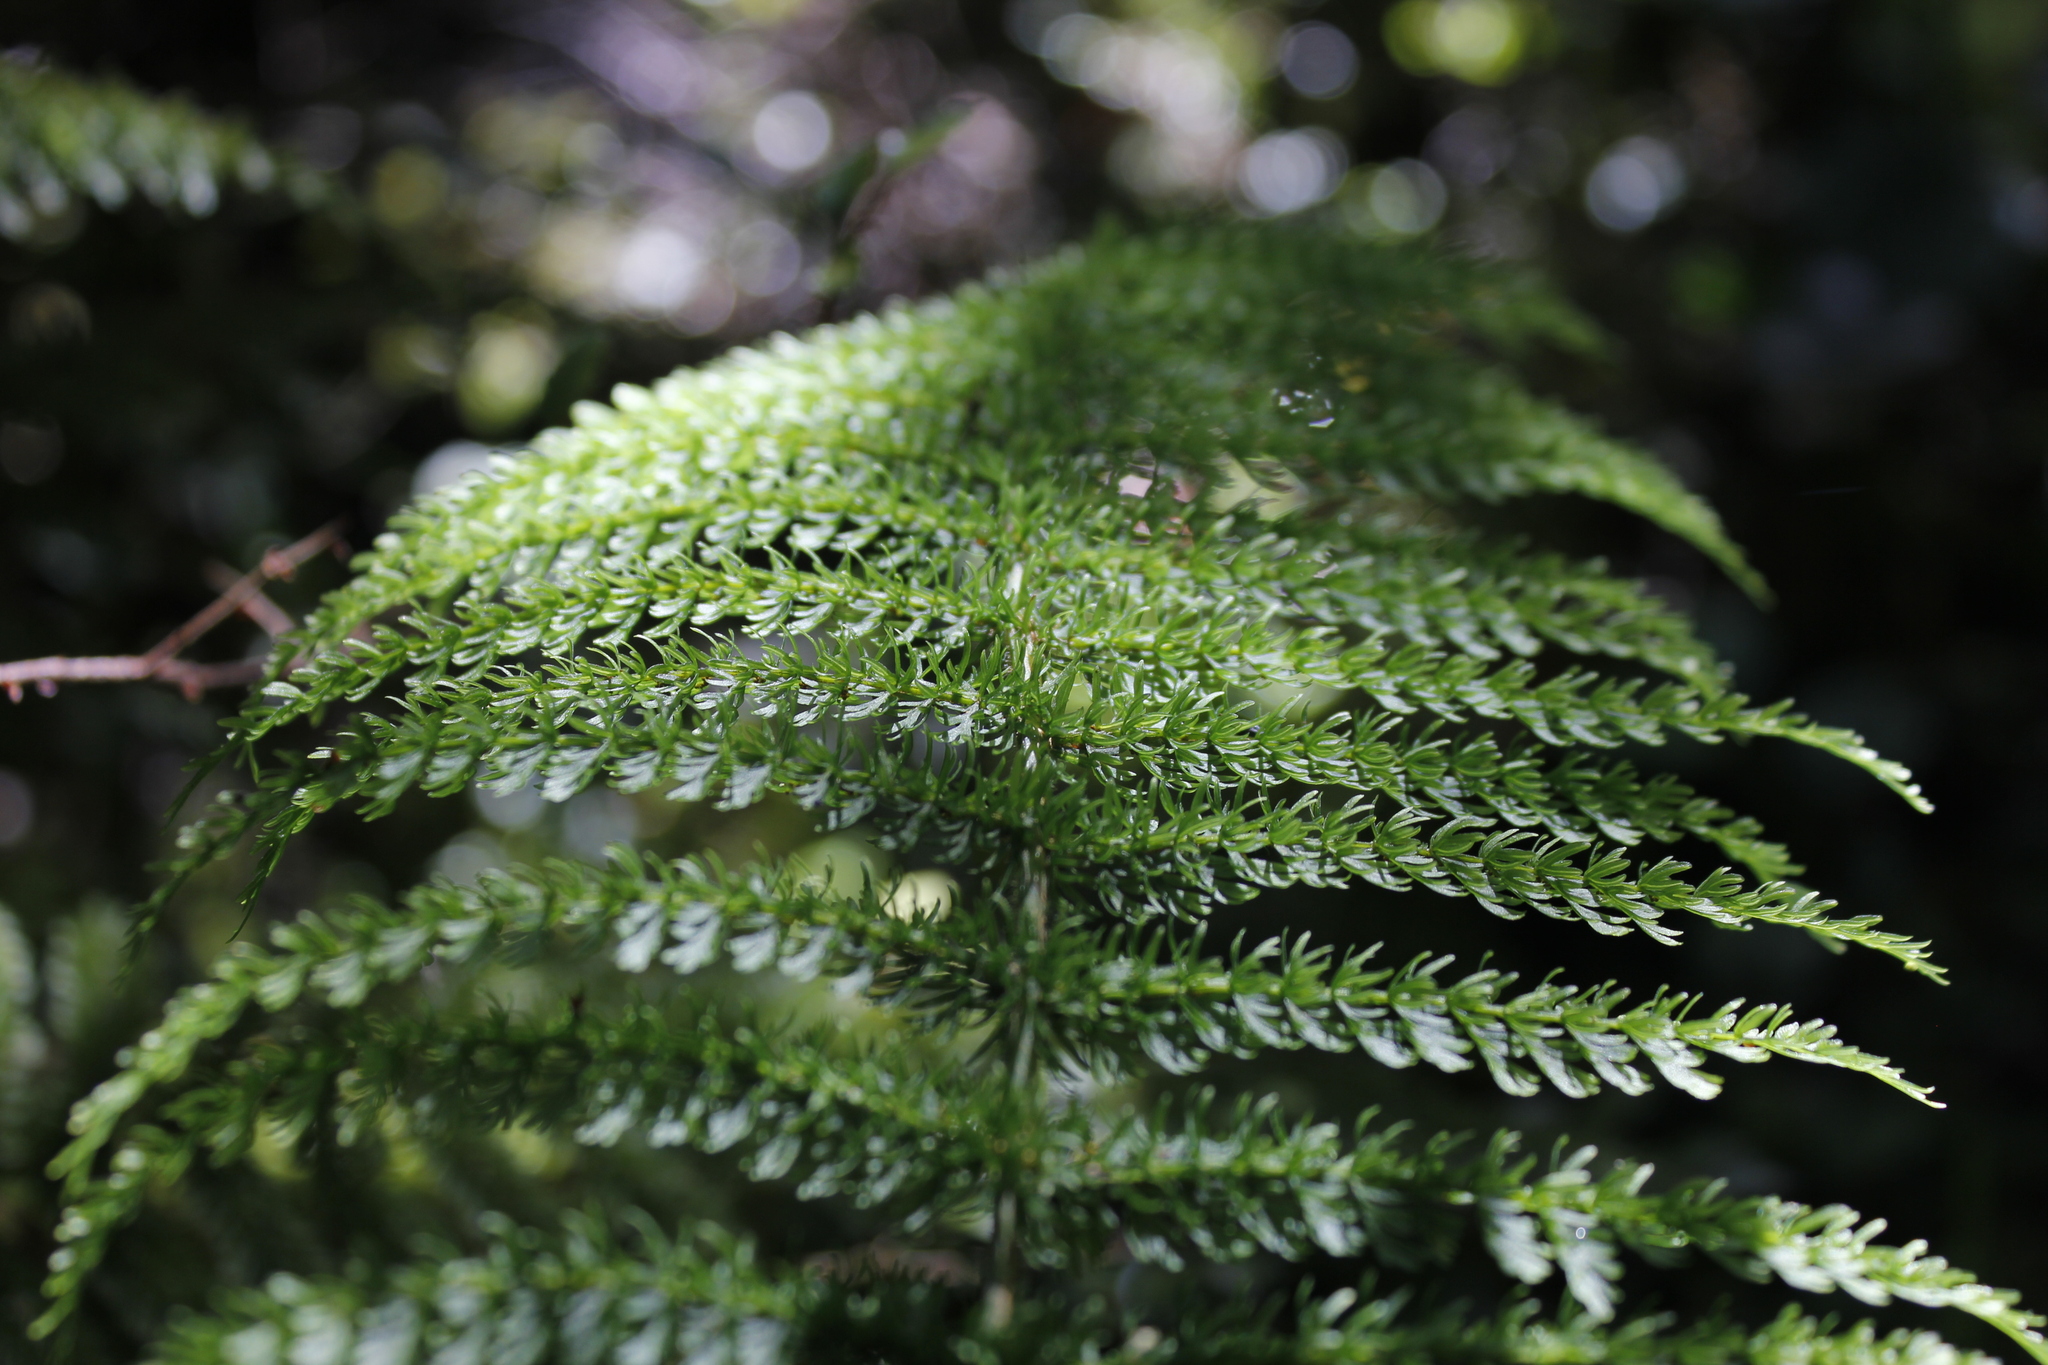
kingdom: Plantae
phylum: Tracheophyta
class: Polypodiopsida
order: Osmundales
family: Osmundaceae
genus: Leptopteris
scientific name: Leptopteris superba
